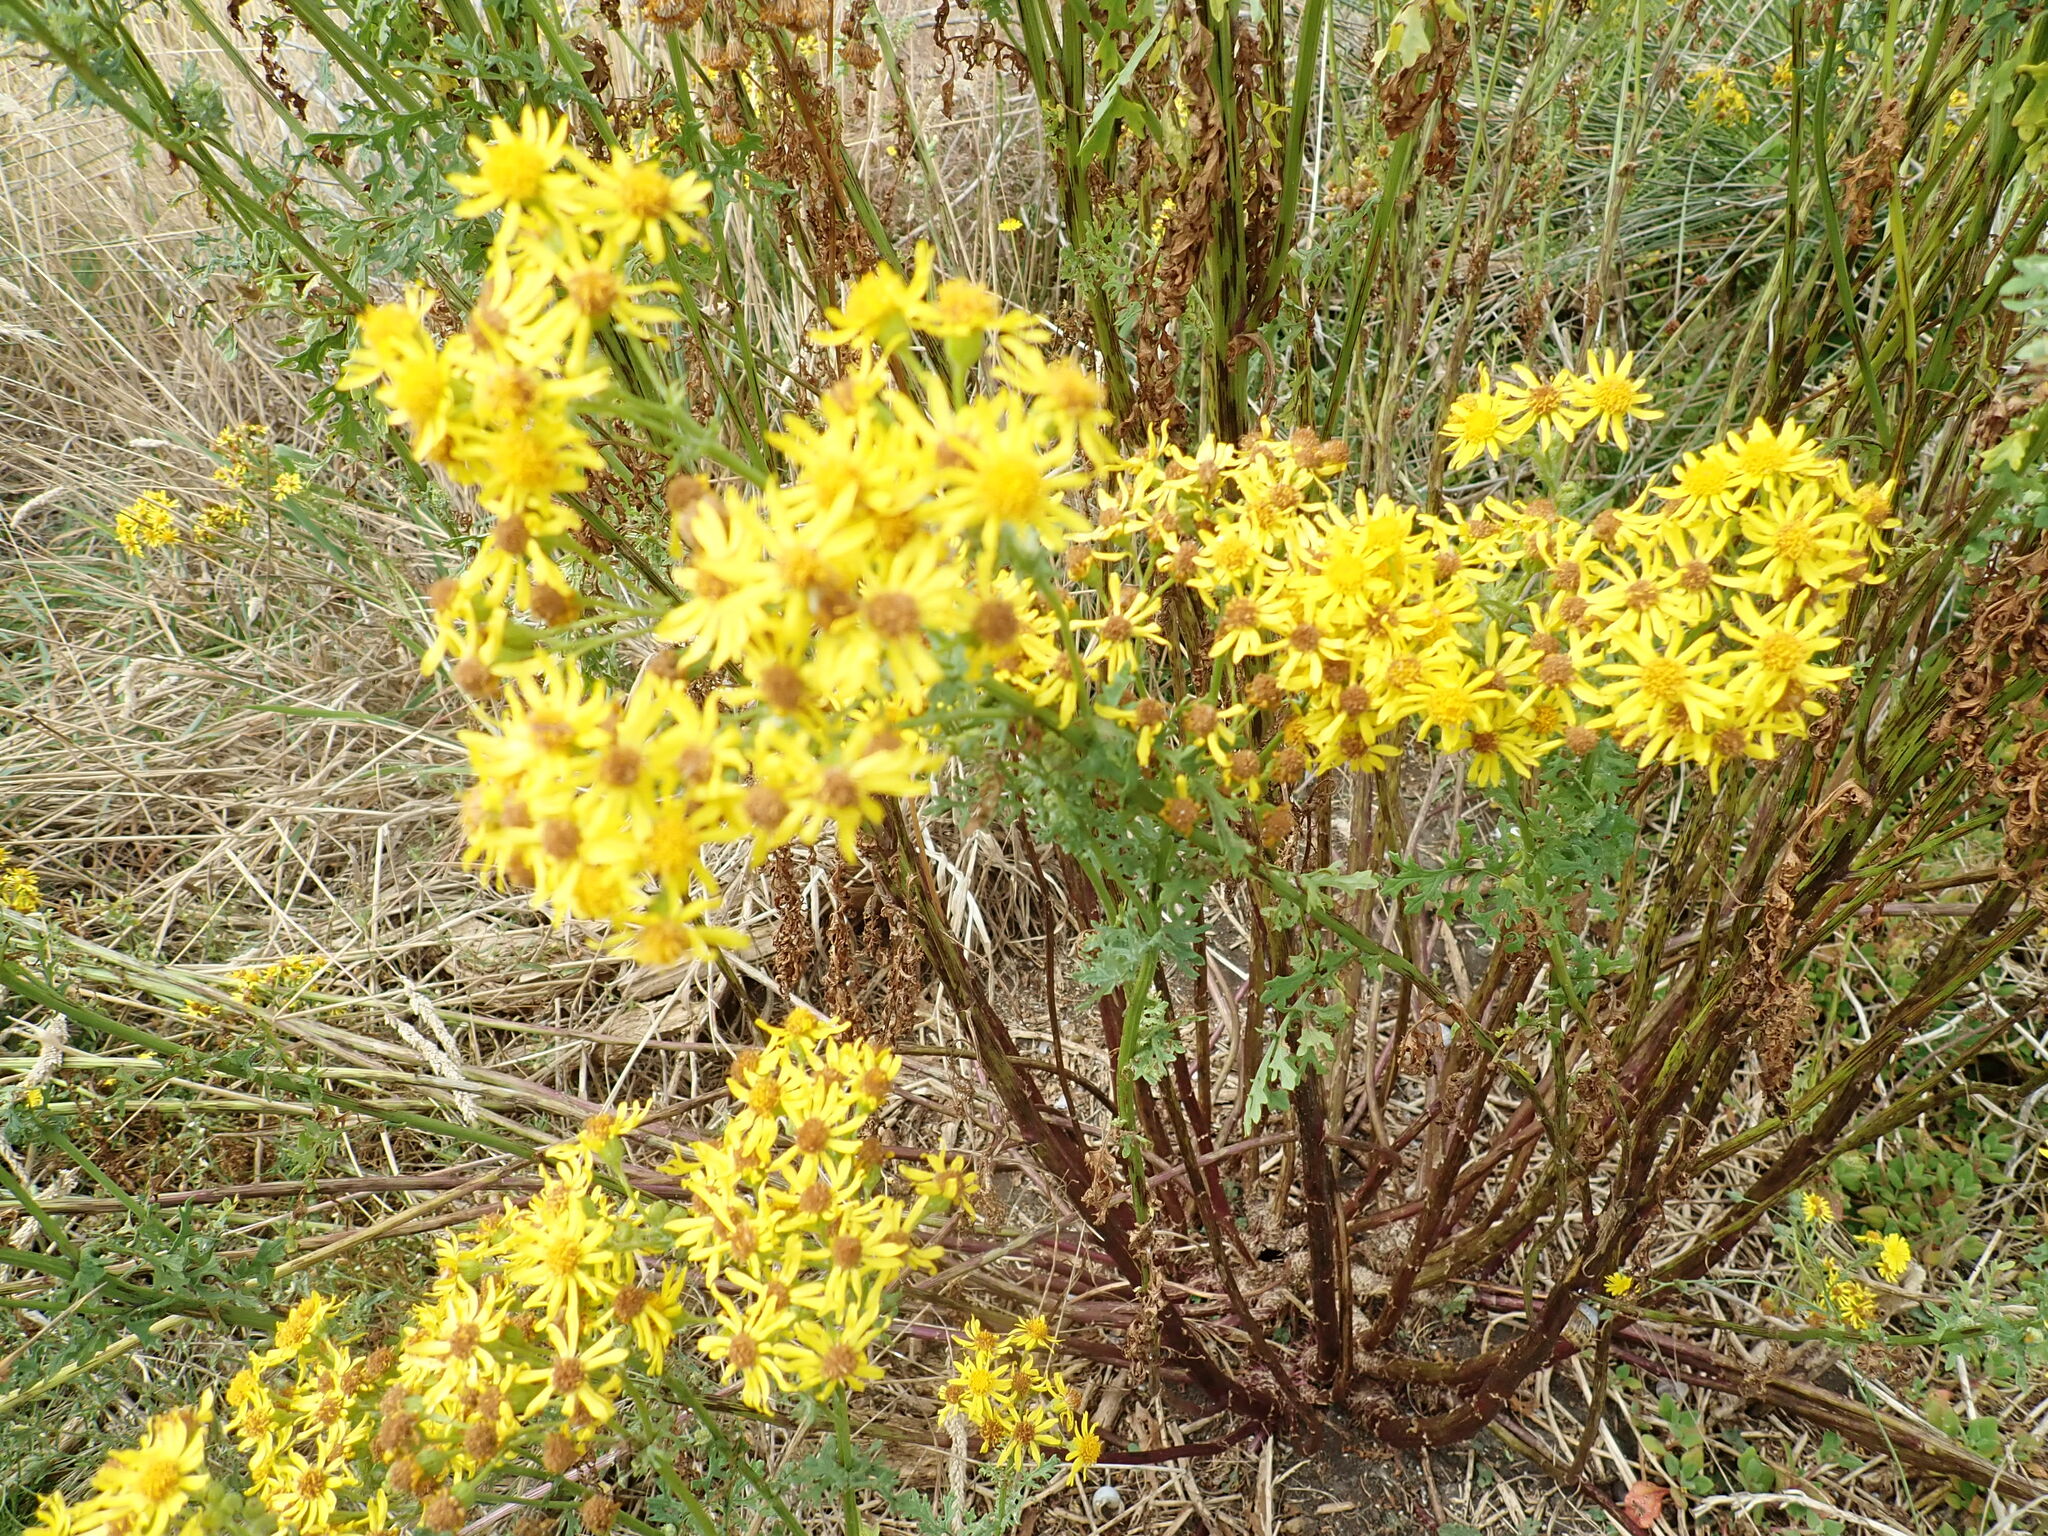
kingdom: Plantae
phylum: Tracheophyta
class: Magnoliopsida
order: Asterales
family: Asteraceae
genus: Jacobaea
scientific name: Jacobaea vulgaris
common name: Stinking willie
